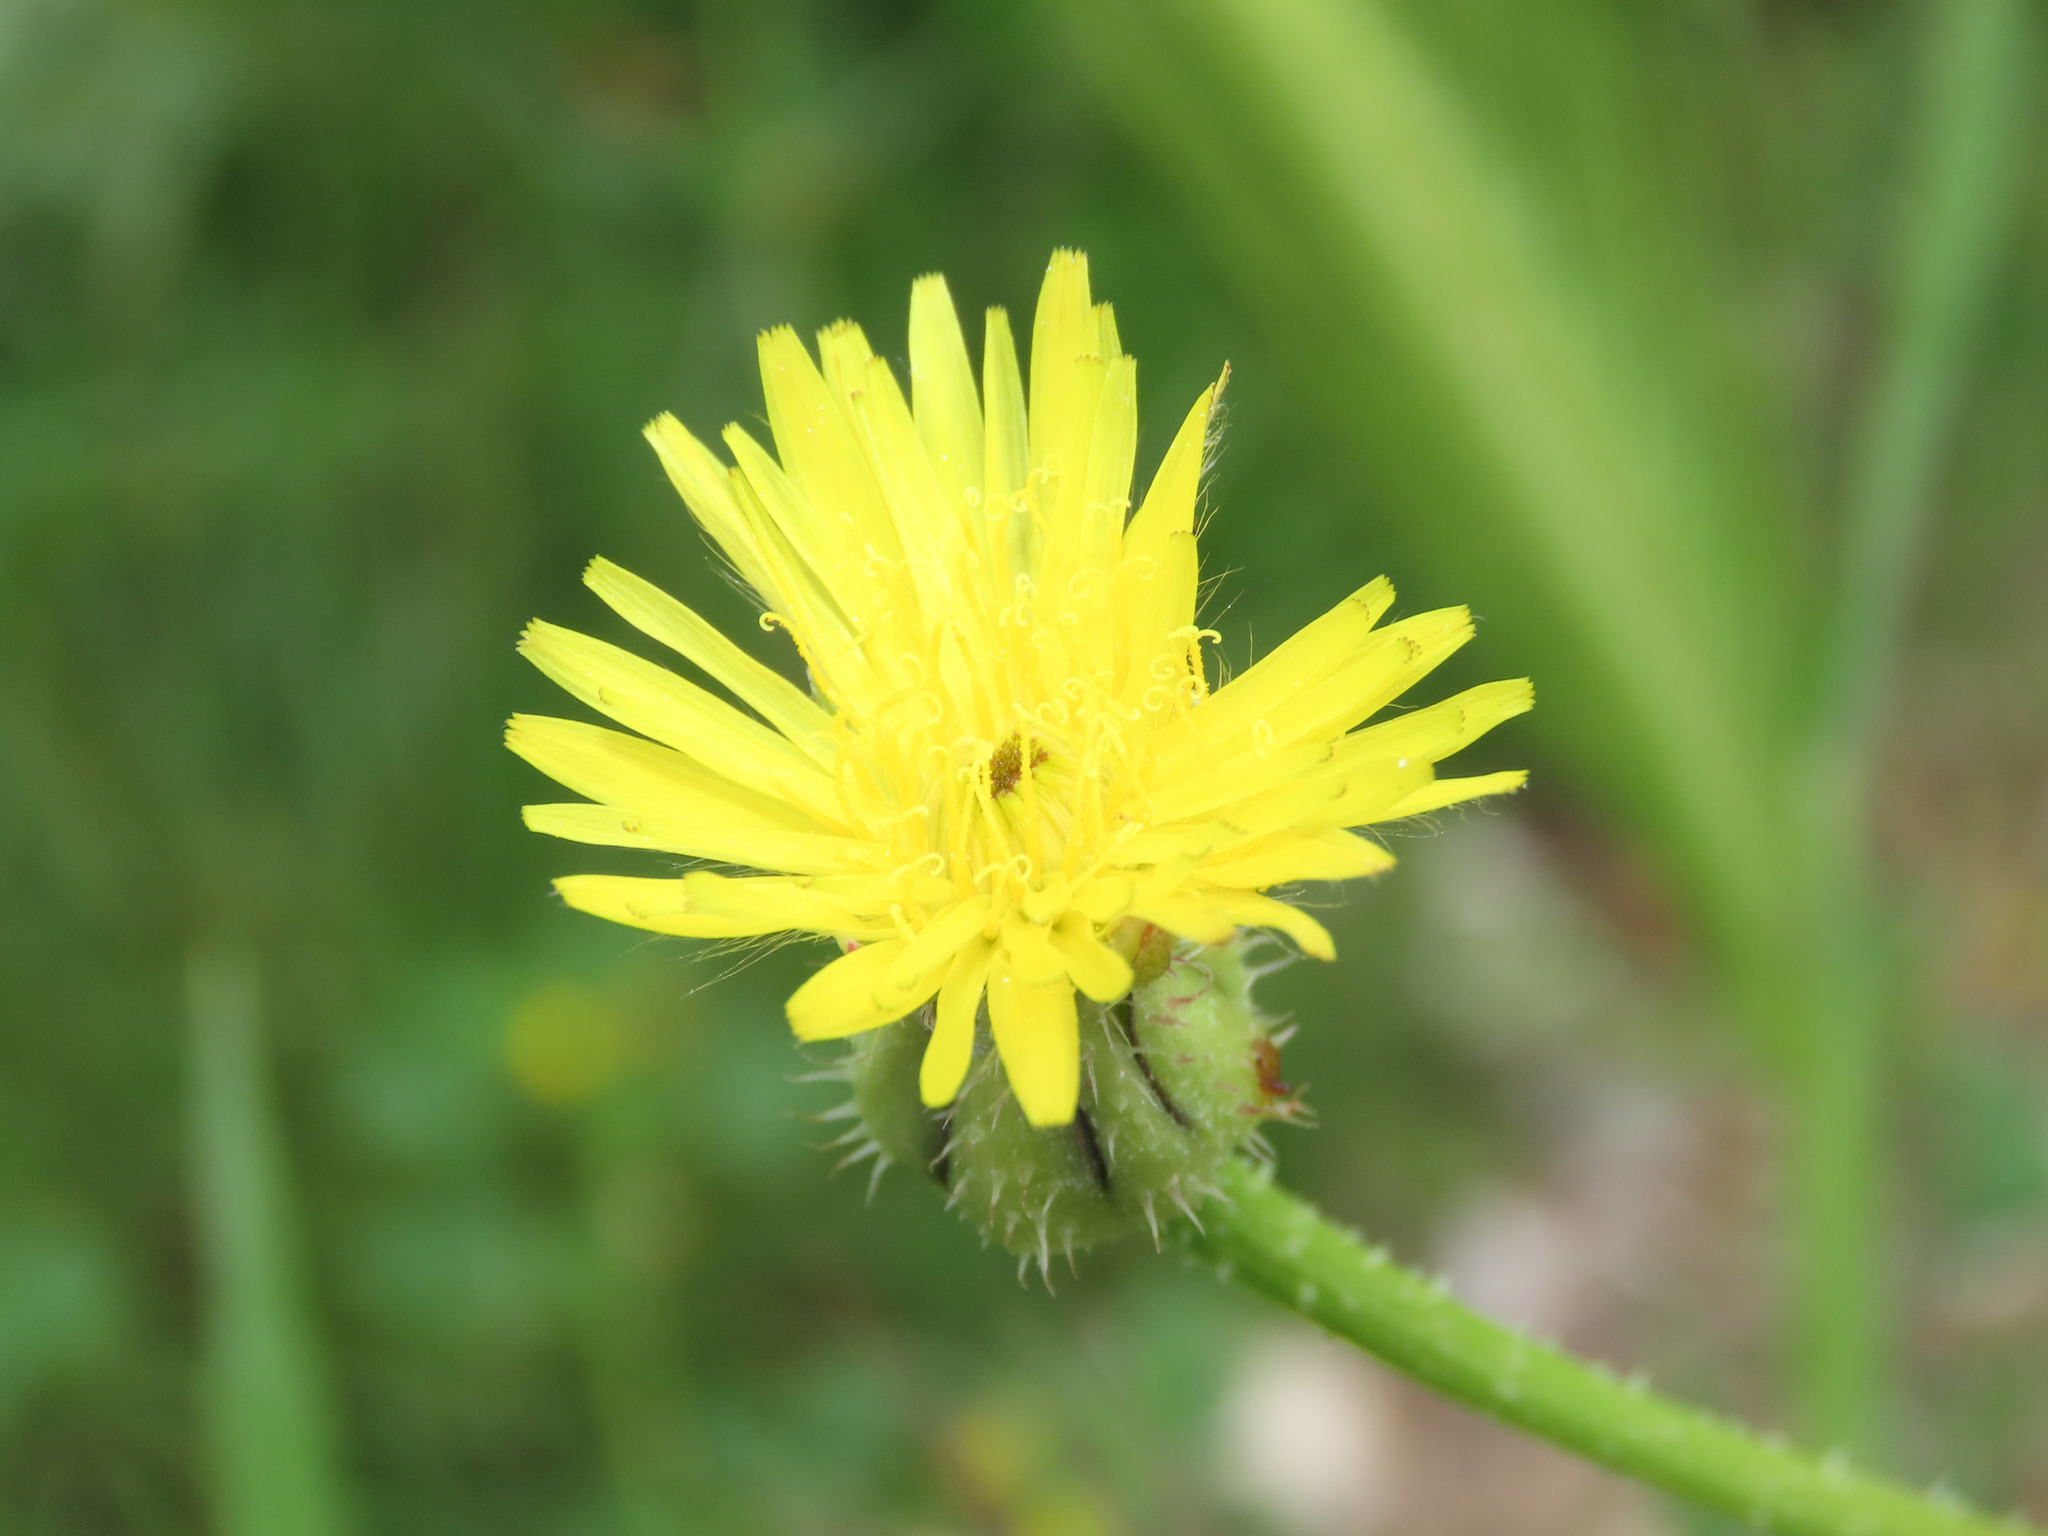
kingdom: Plantae
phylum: Tracheophyta
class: Magnoliopsida
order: Asterales
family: Asteraceae
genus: Urospermum
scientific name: Urospermum picroides
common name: False hawkbit
